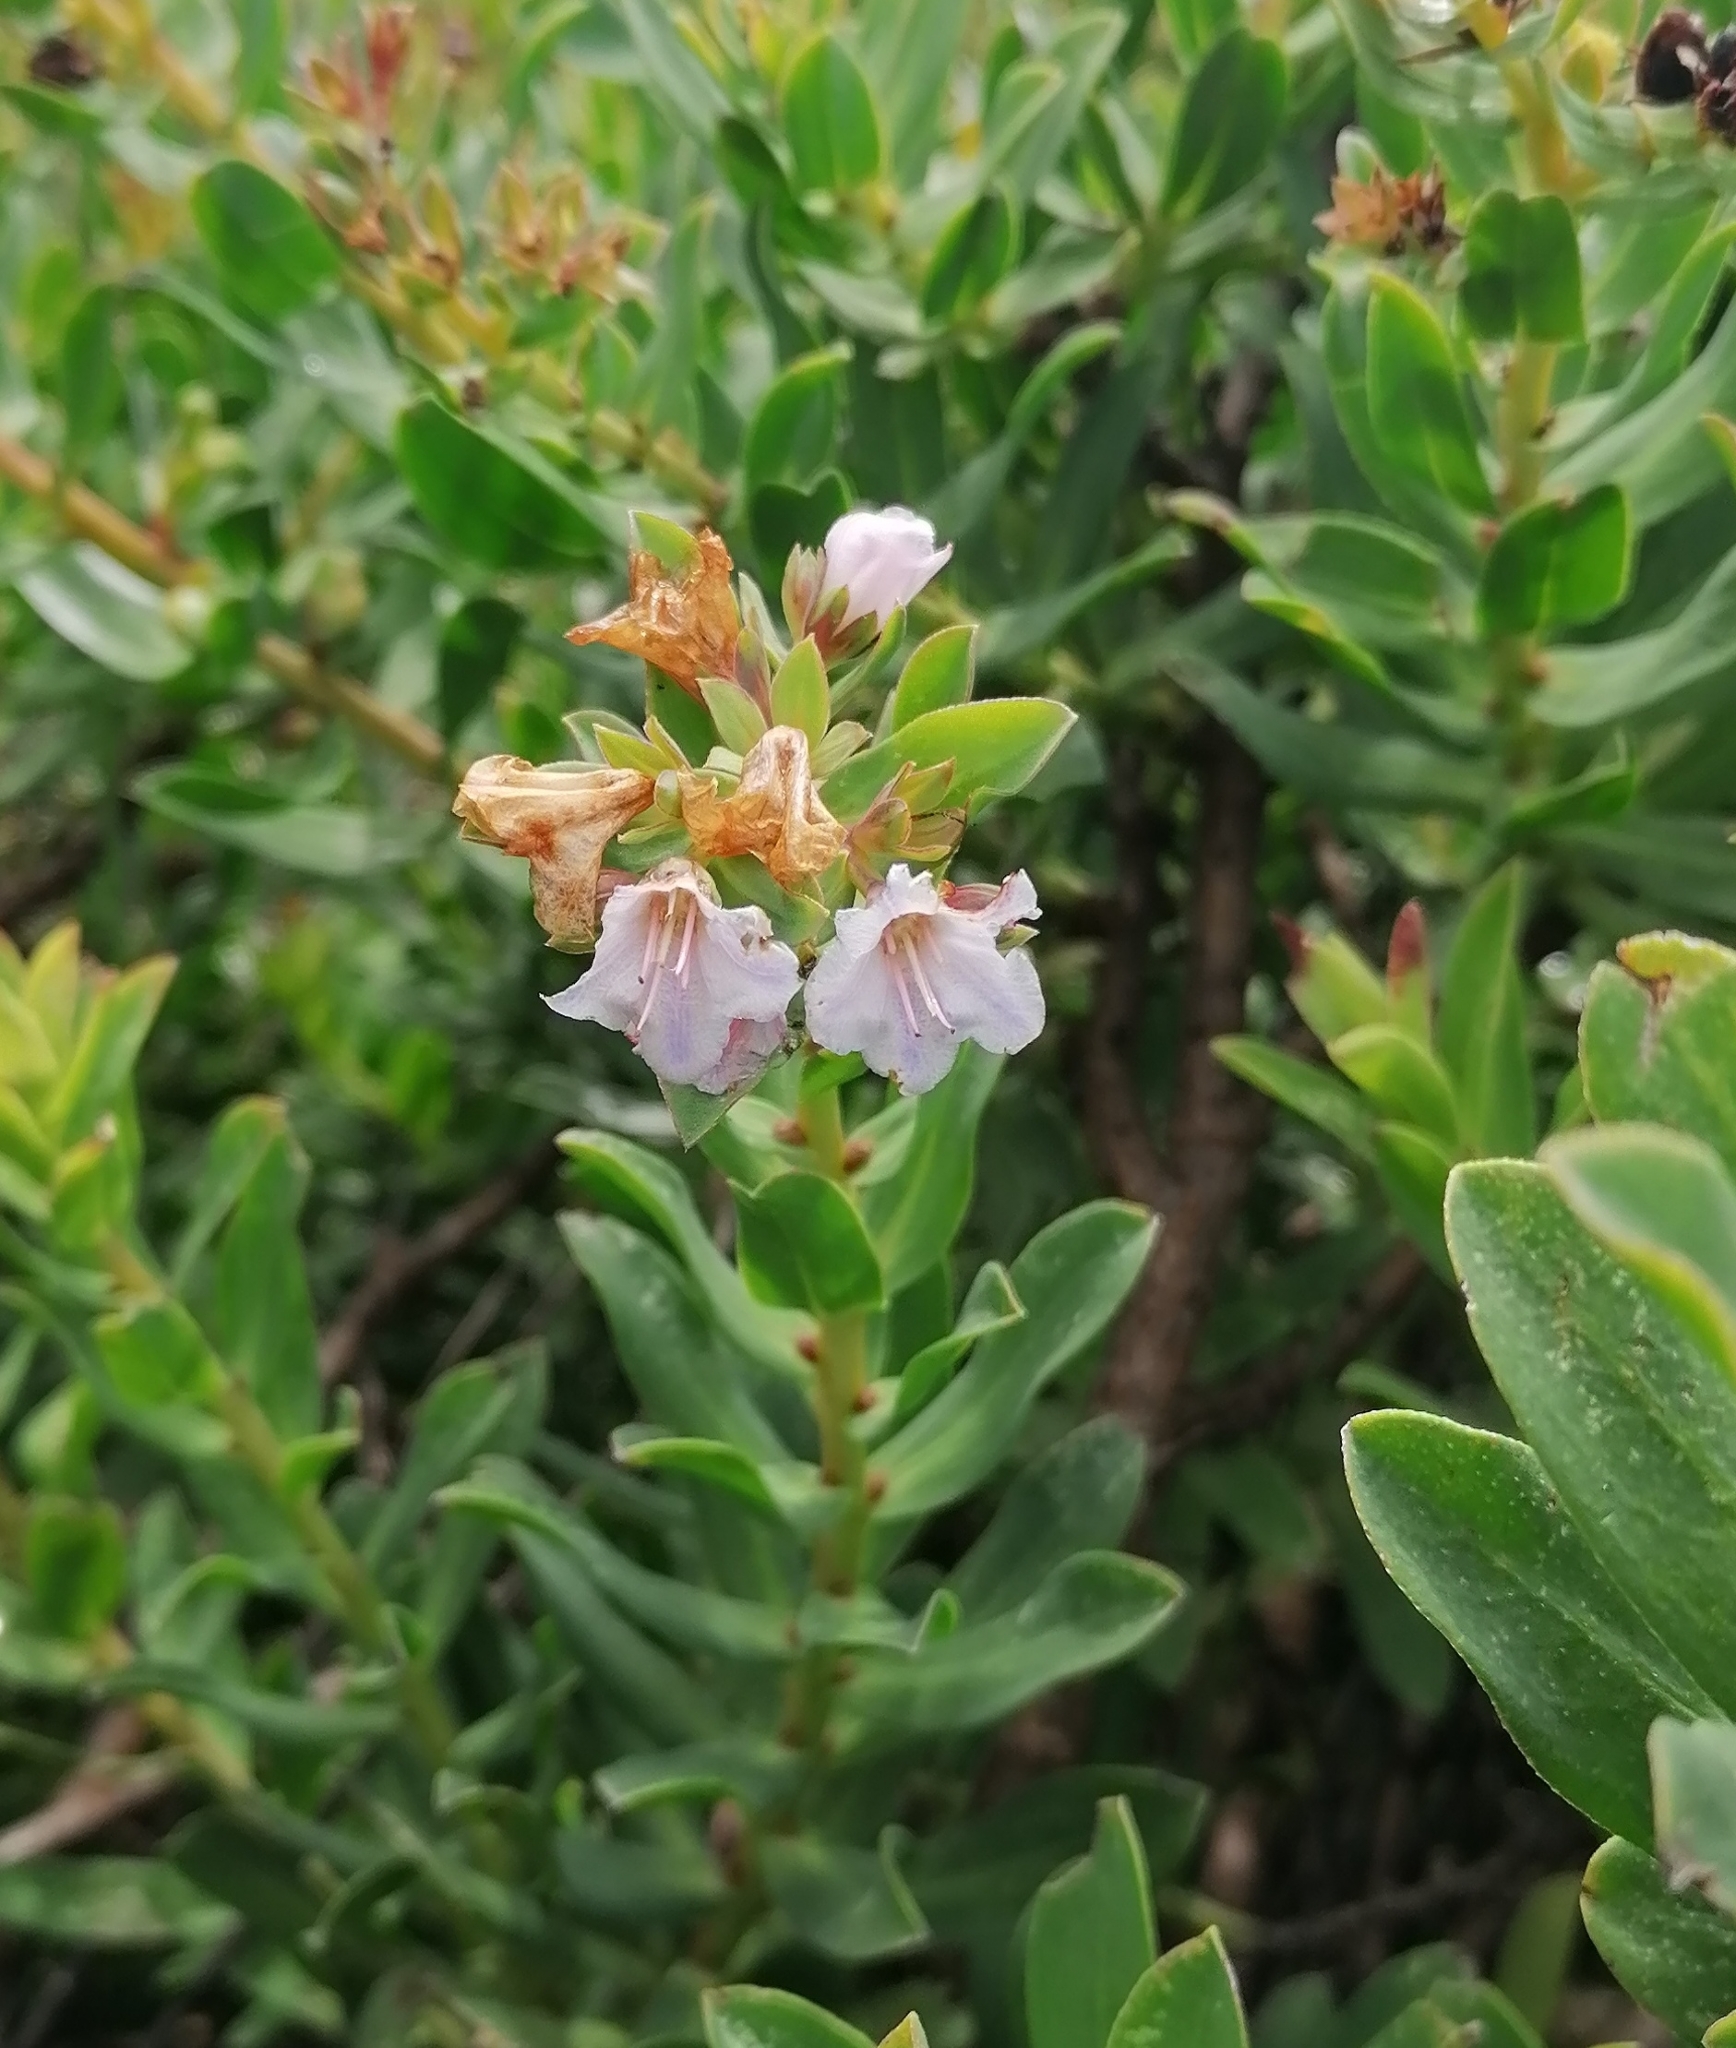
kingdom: Plantae
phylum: Tracheophyta
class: Magnoliopsida
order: Boraginales
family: Boraginaceae
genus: Lobostemon
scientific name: Lobostemon glaucophyllus
